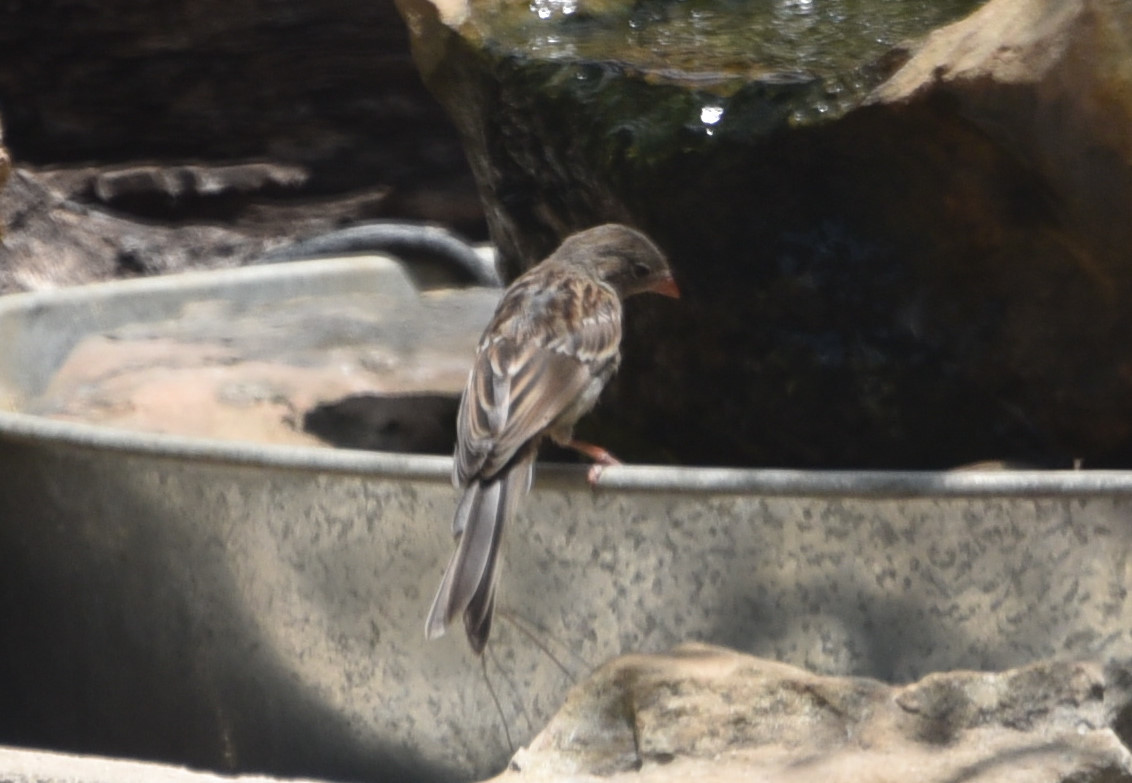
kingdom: Animalia
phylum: Chordata
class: Aves
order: Passeriformes
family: Passerellidae
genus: Spizella
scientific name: Spizella pusilla
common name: Field sparrow
